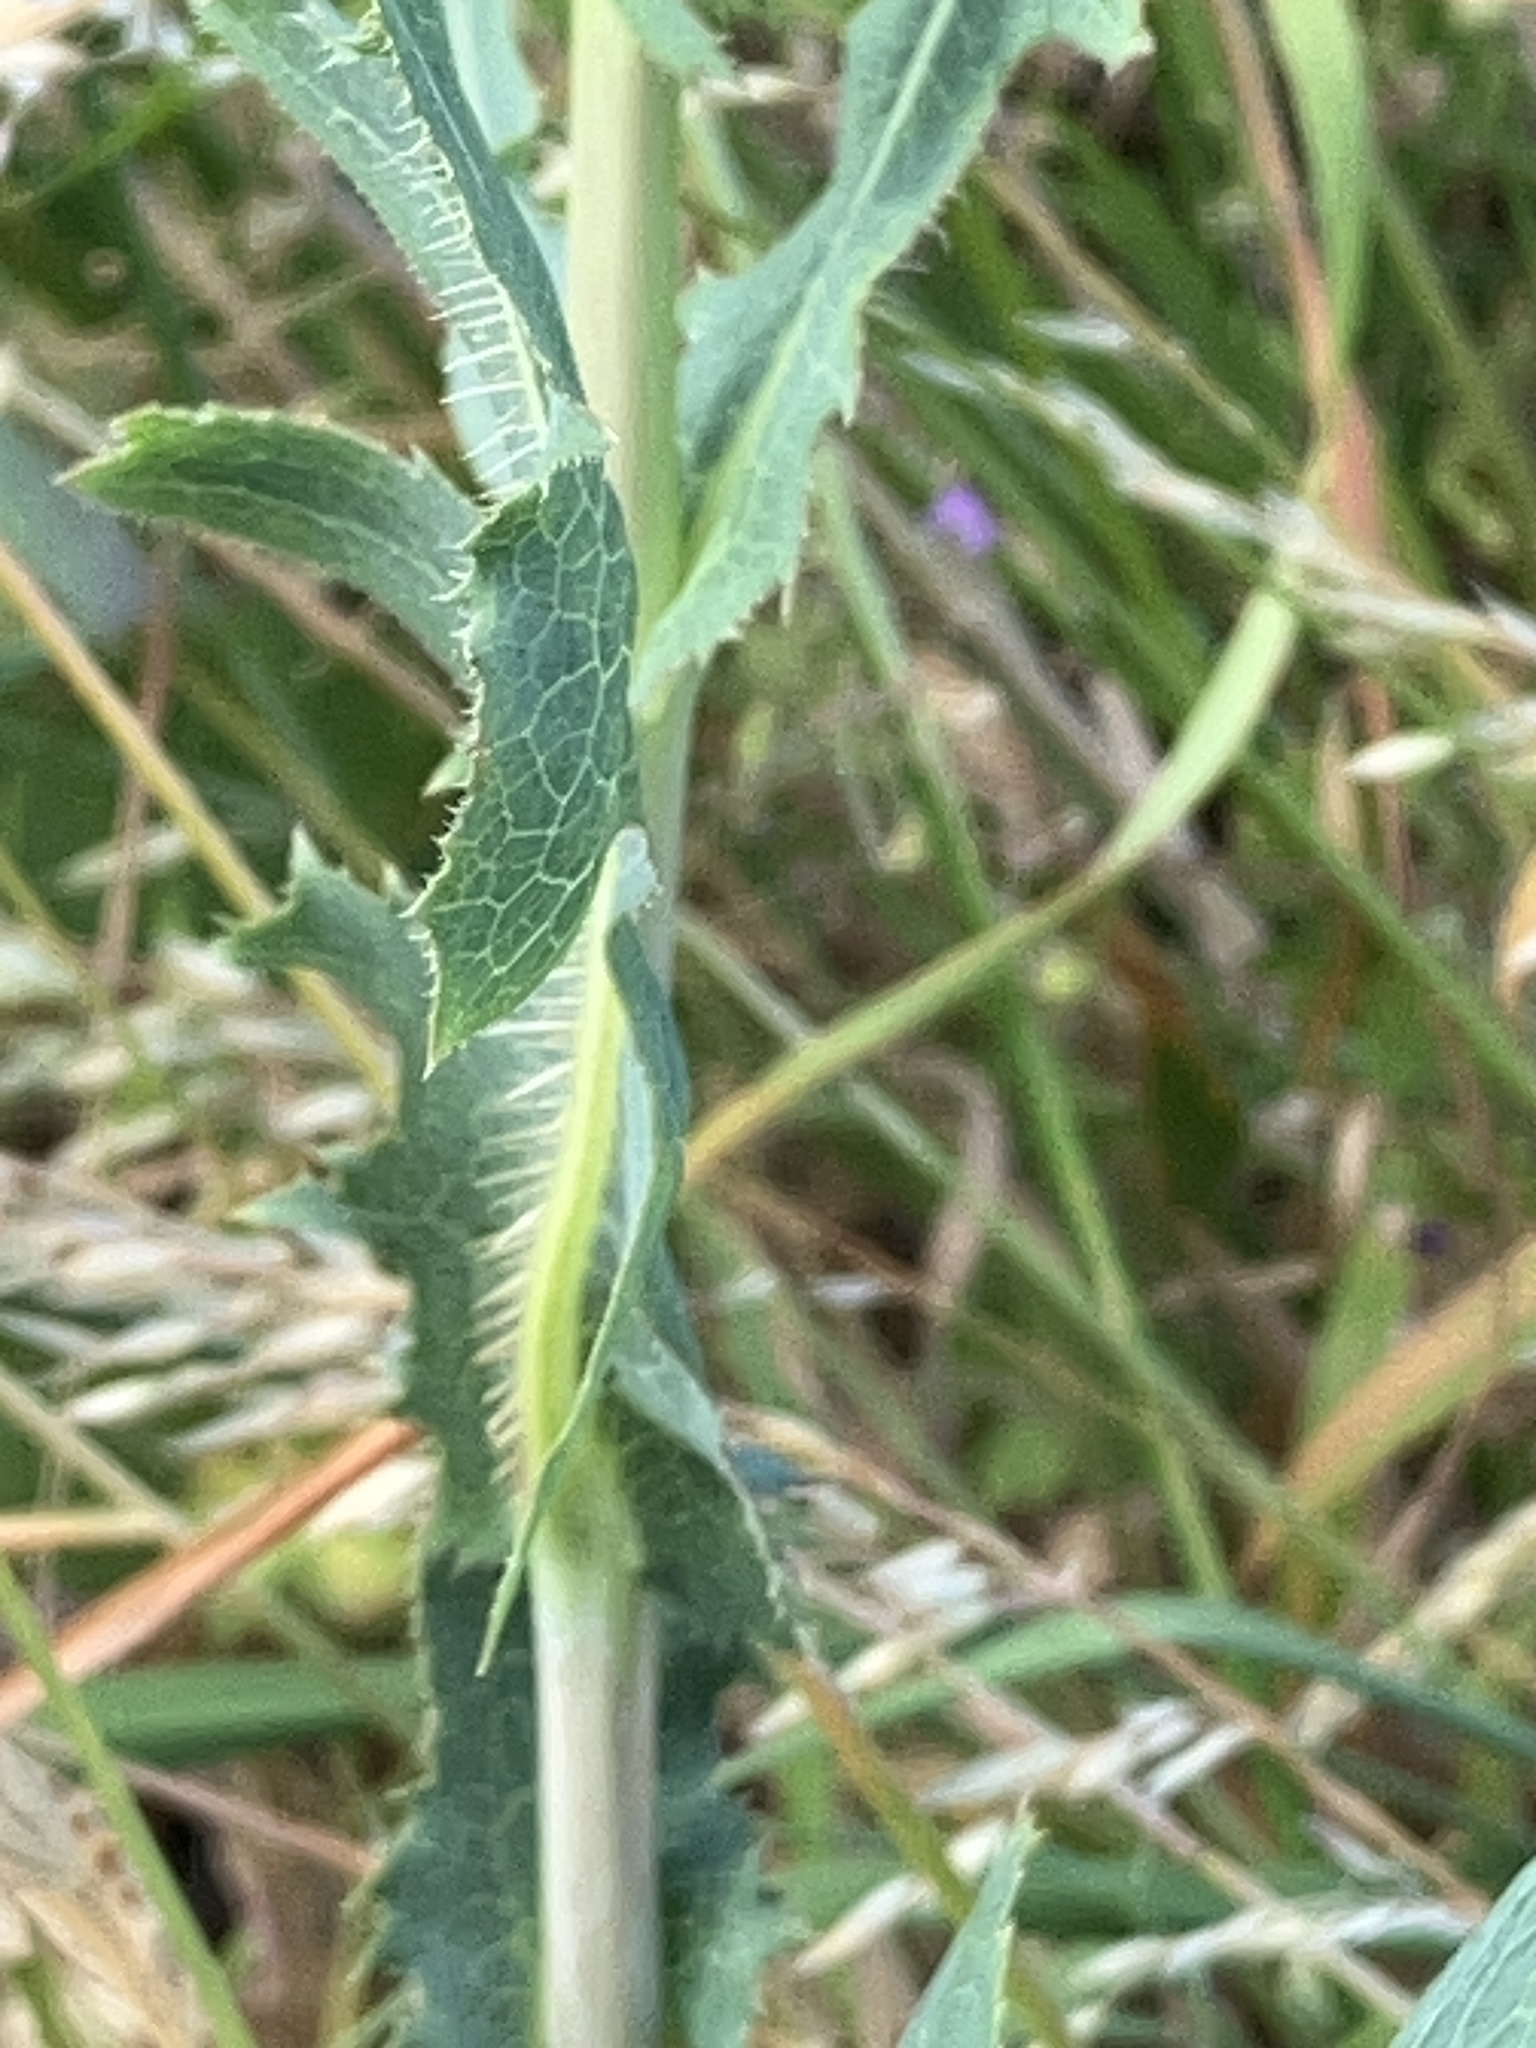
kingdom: Plantae
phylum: Tracheophyta
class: Magnoliopsida
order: Asterales
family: Asteraceae
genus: Lactuca
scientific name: Lactuca serriola
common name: Prickly lettuce
